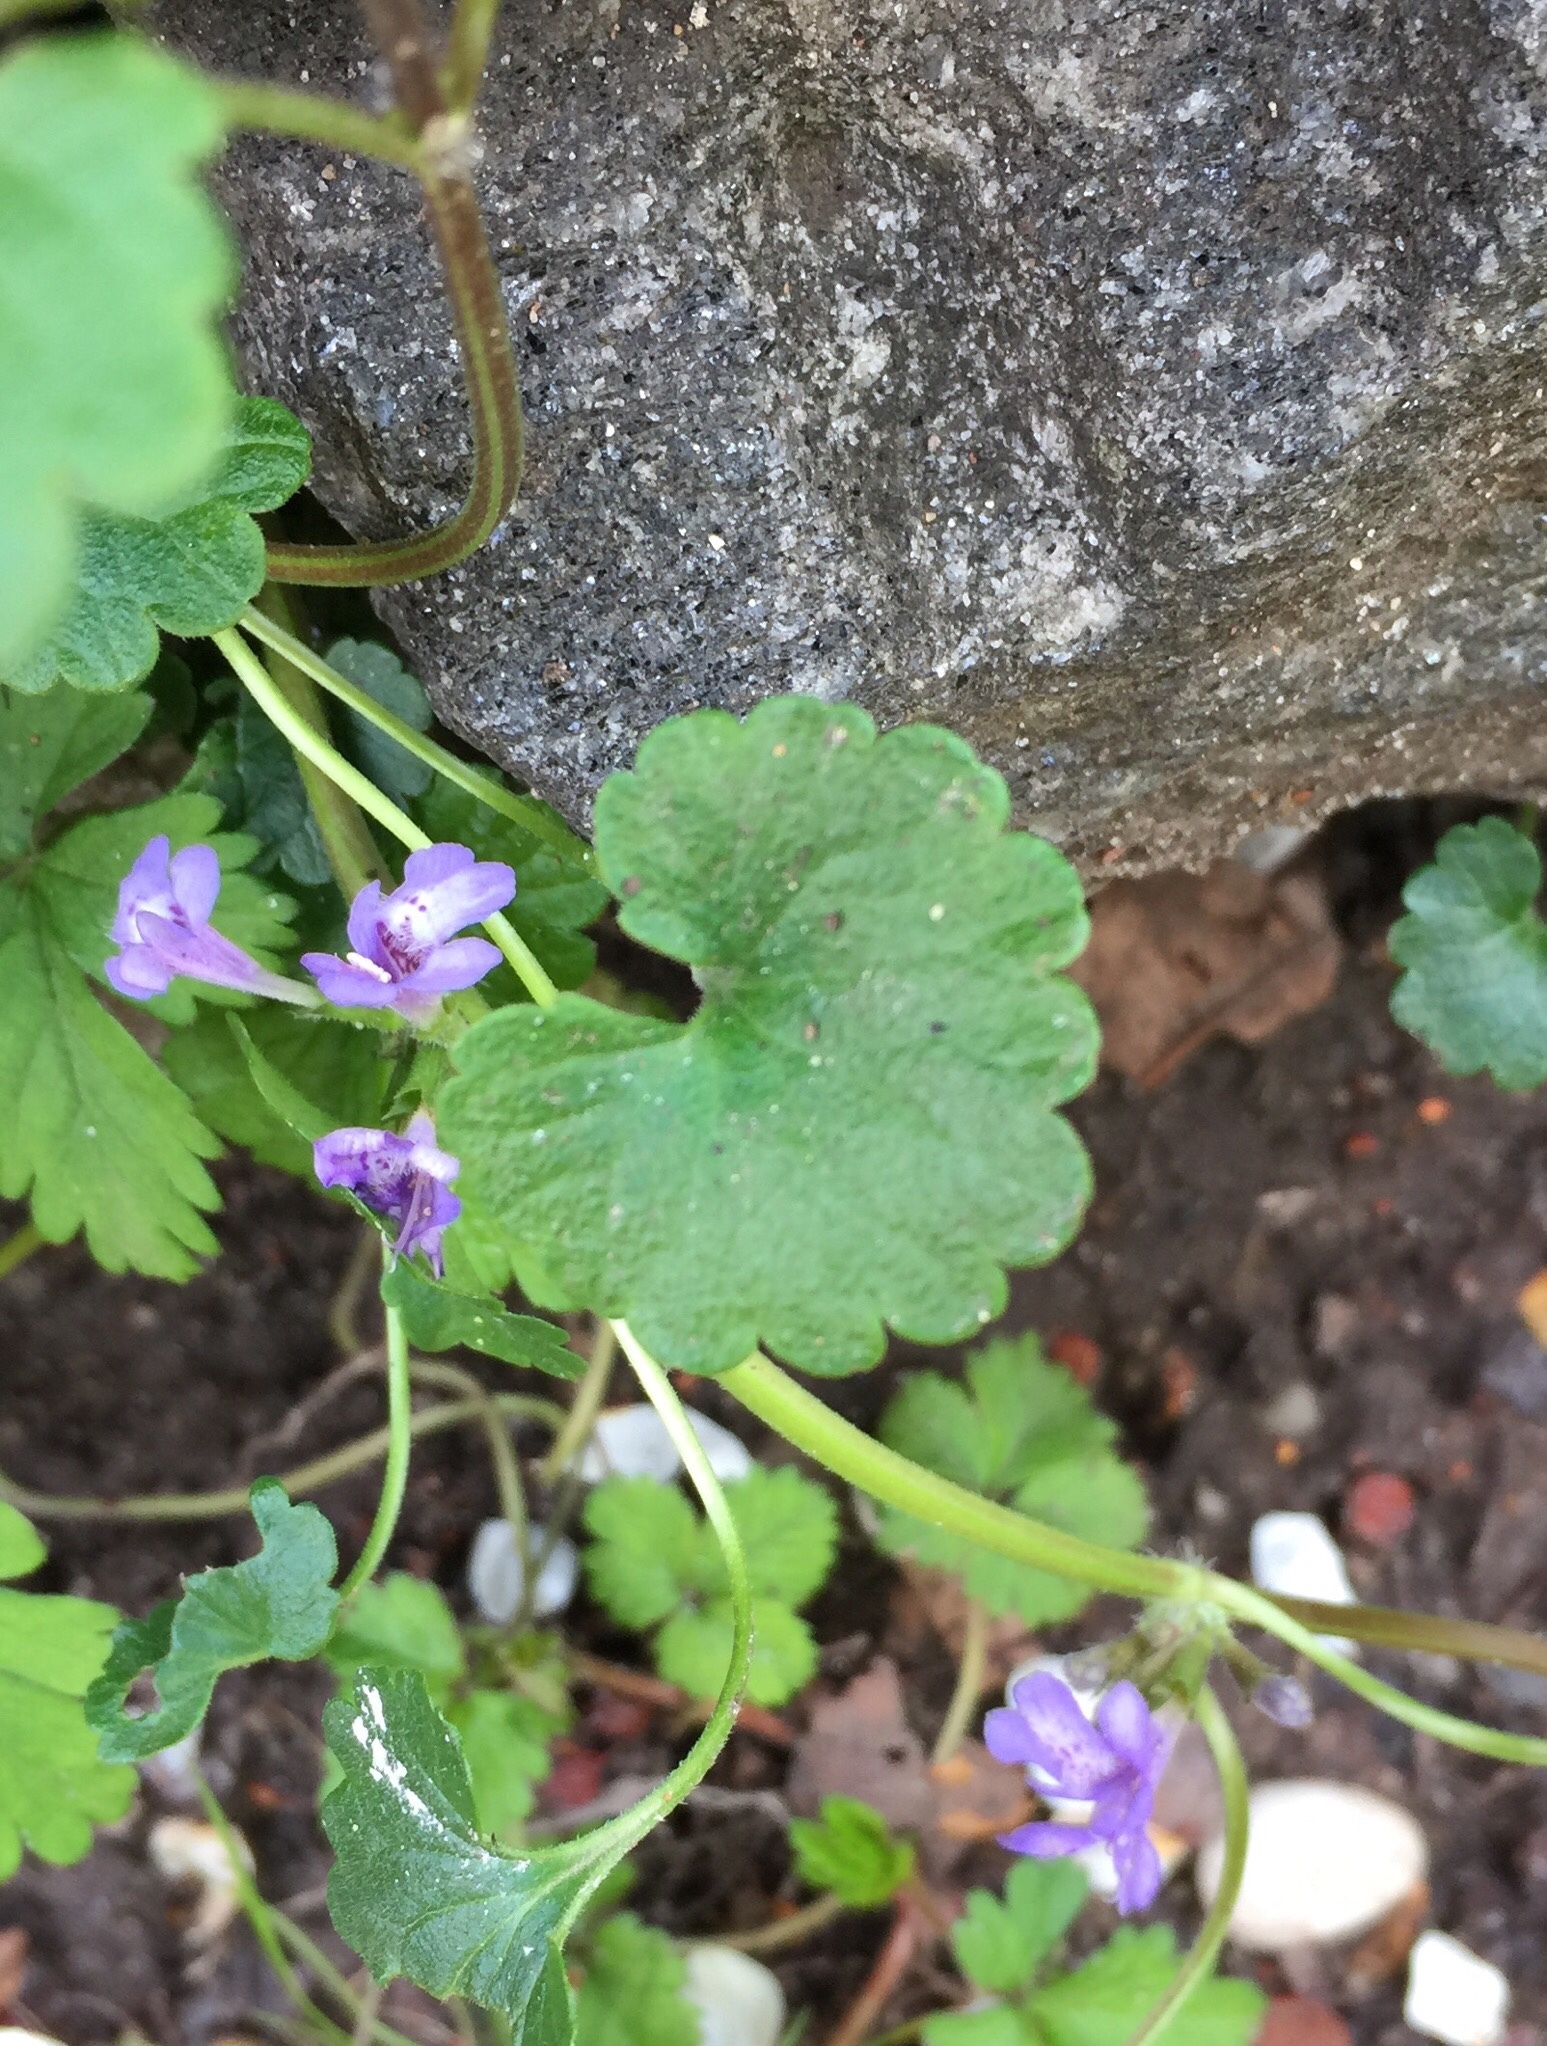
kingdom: Plantae
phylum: Tracheophyta
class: Magnoliopsida
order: Lamiales
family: Lamiaceae
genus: Glechoma
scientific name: Glechoma hederacea
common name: Ground ivy
